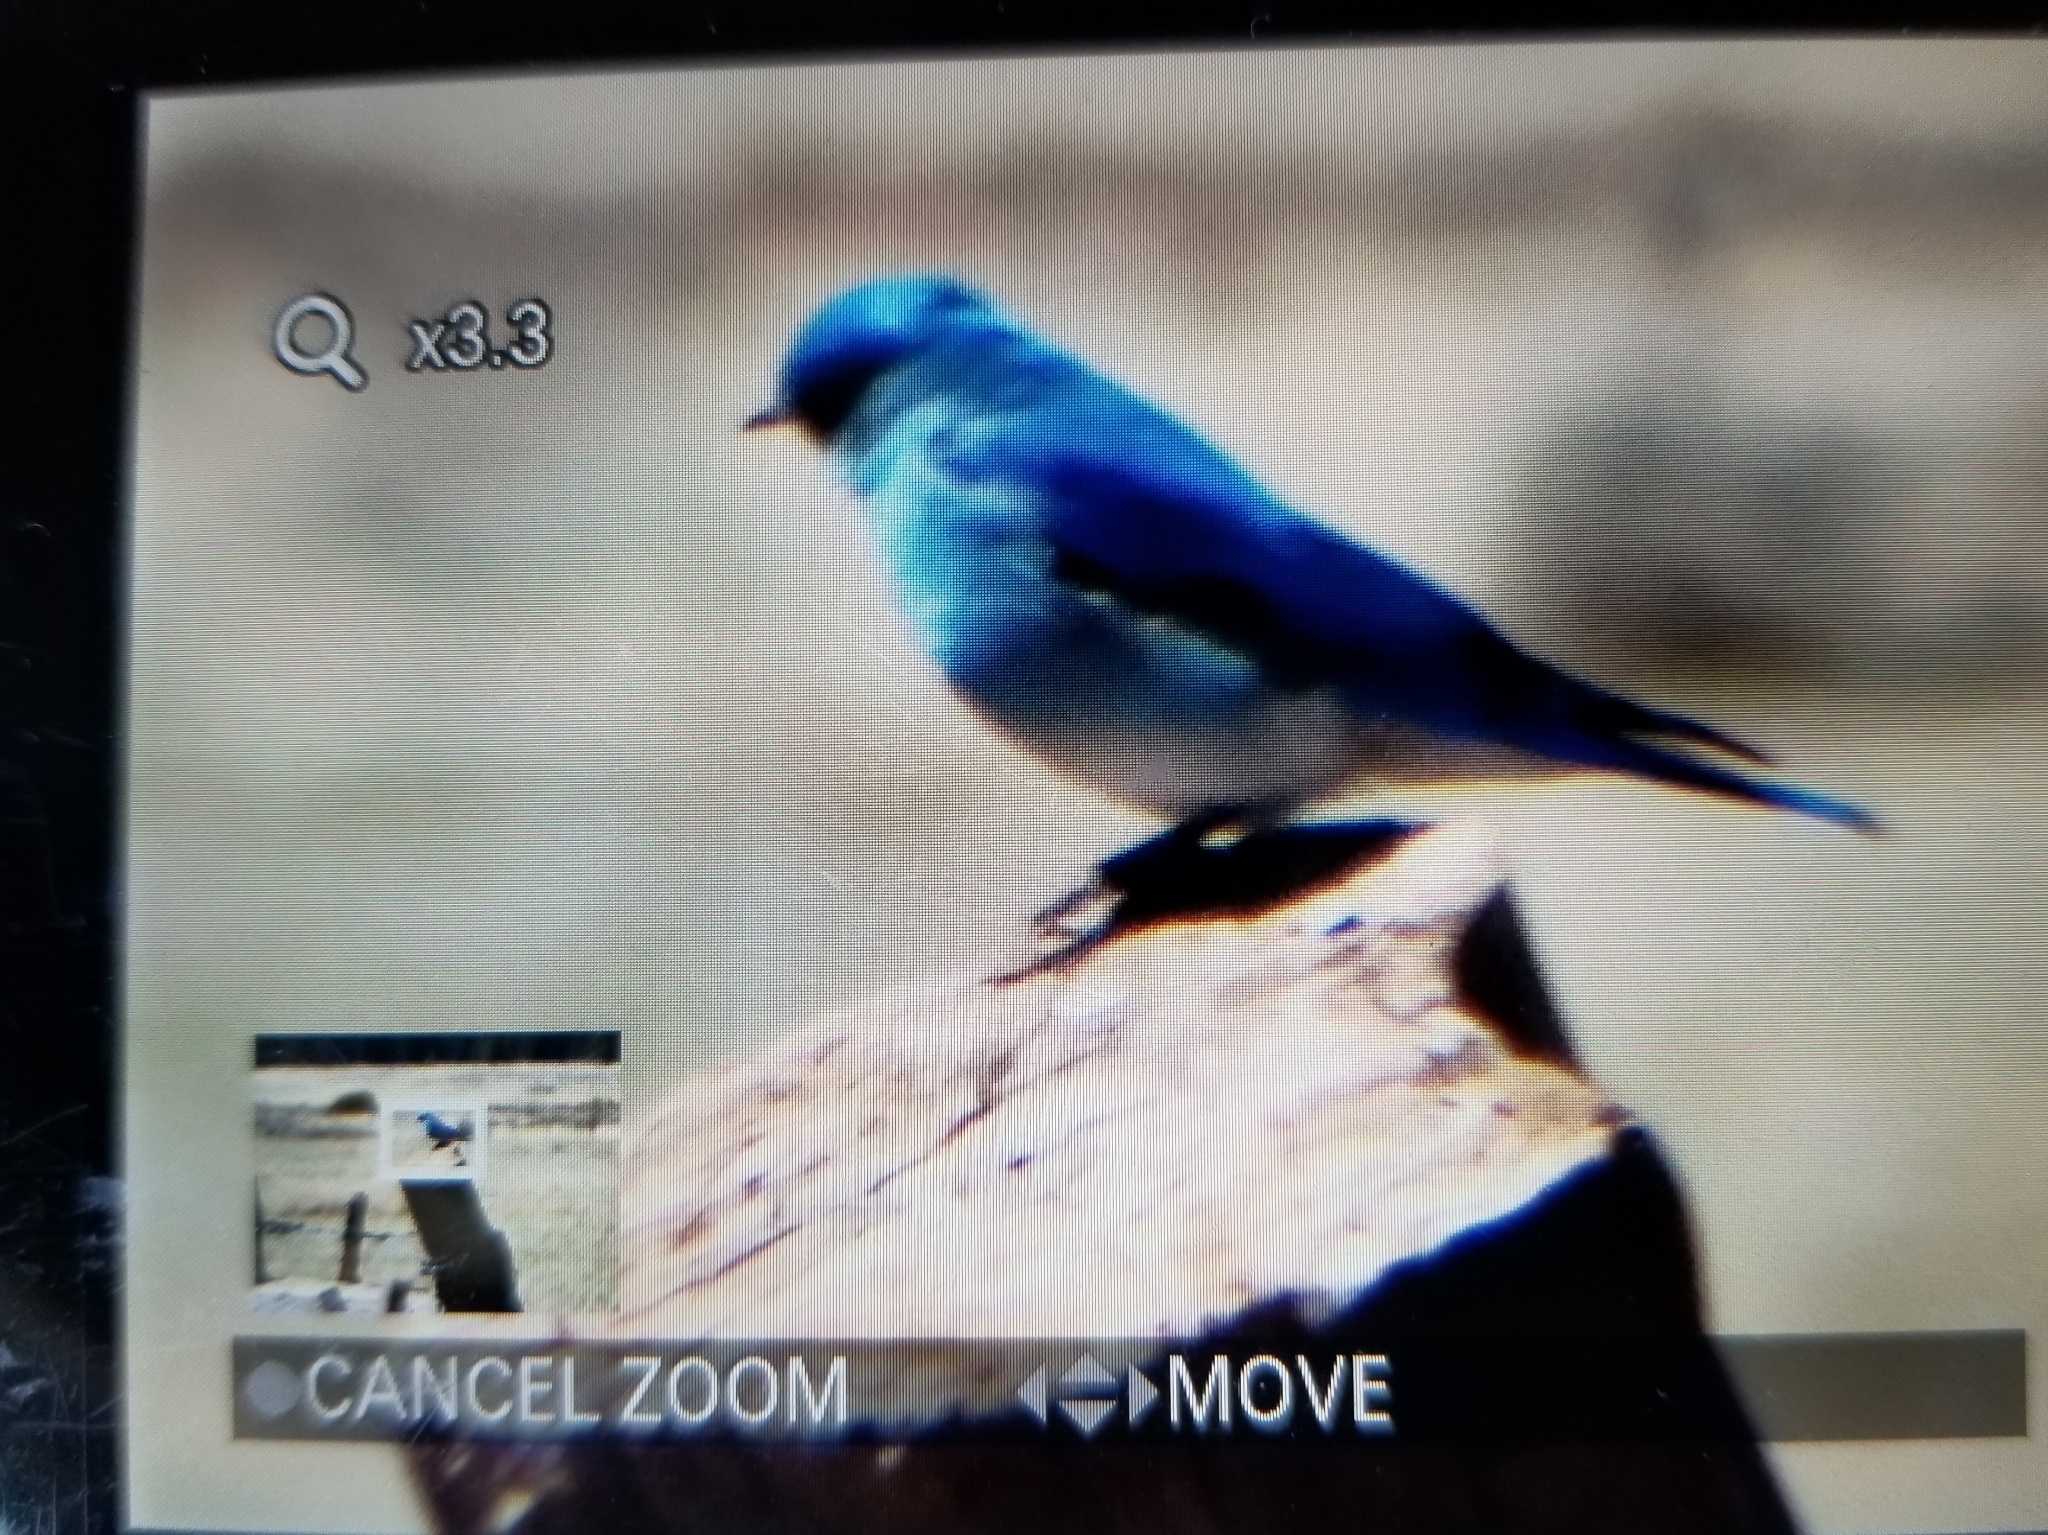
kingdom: Animalia
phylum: Chordata
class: Aves
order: Passeriformes
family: Turdidae
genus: Sialia
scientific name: Sialia currucoides
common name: Mountain bluebird
